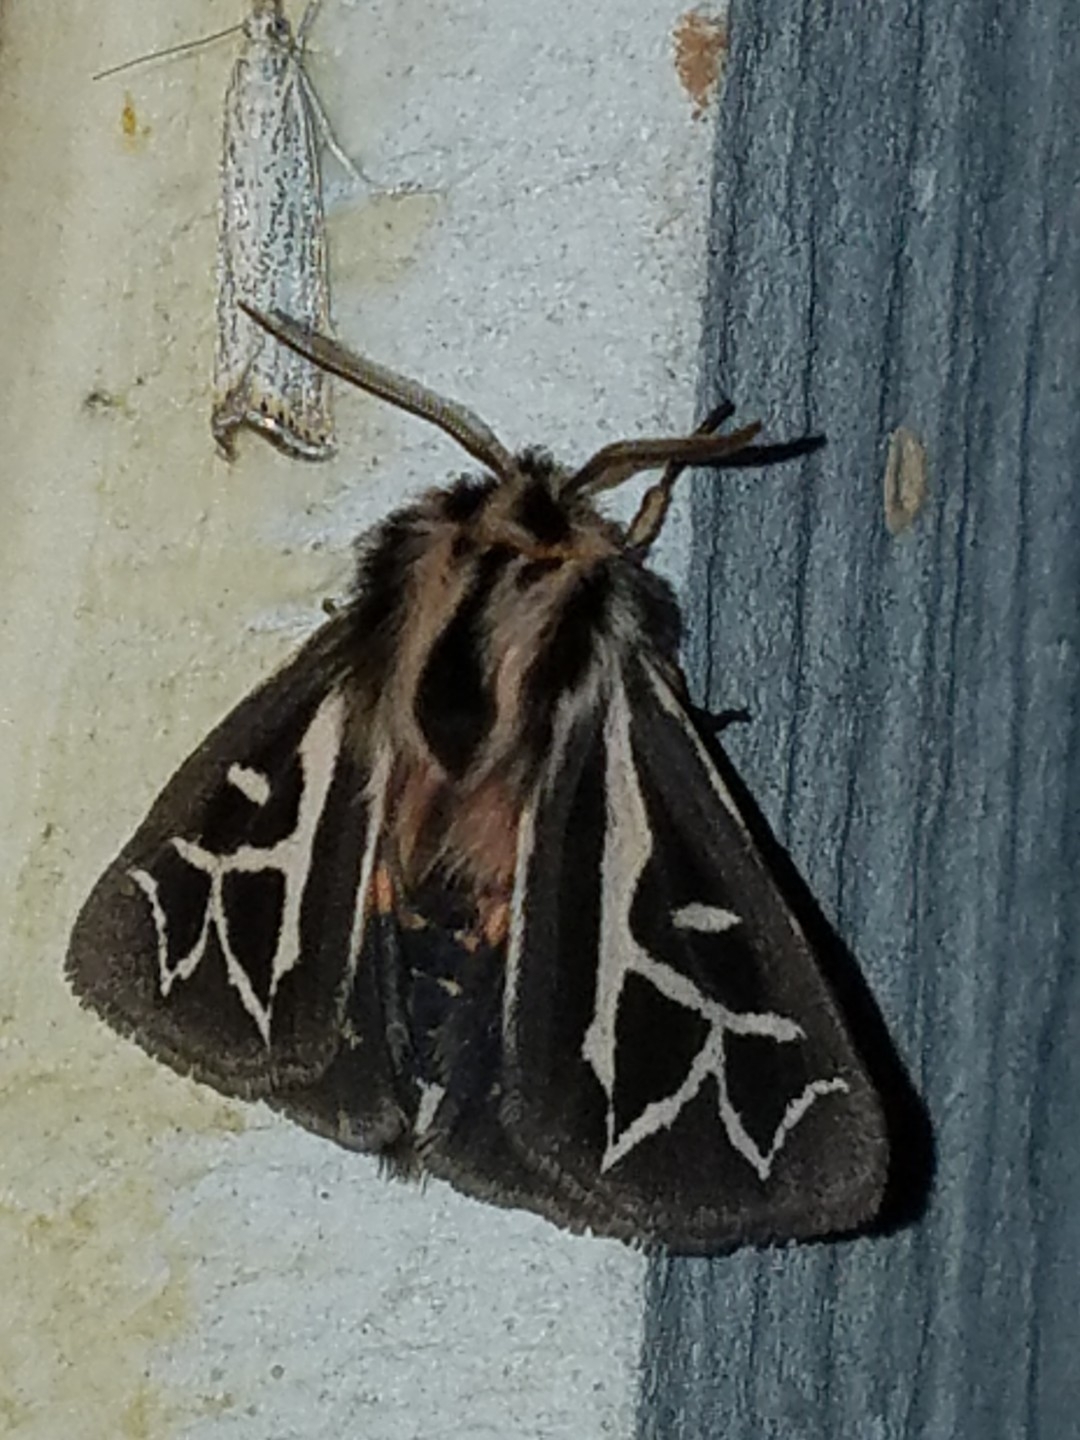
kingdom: Animalia
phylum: Arthropoda
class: Insecta
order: Lepidoptera
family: Erebidae
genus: Apantesis
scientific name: Apantesis
